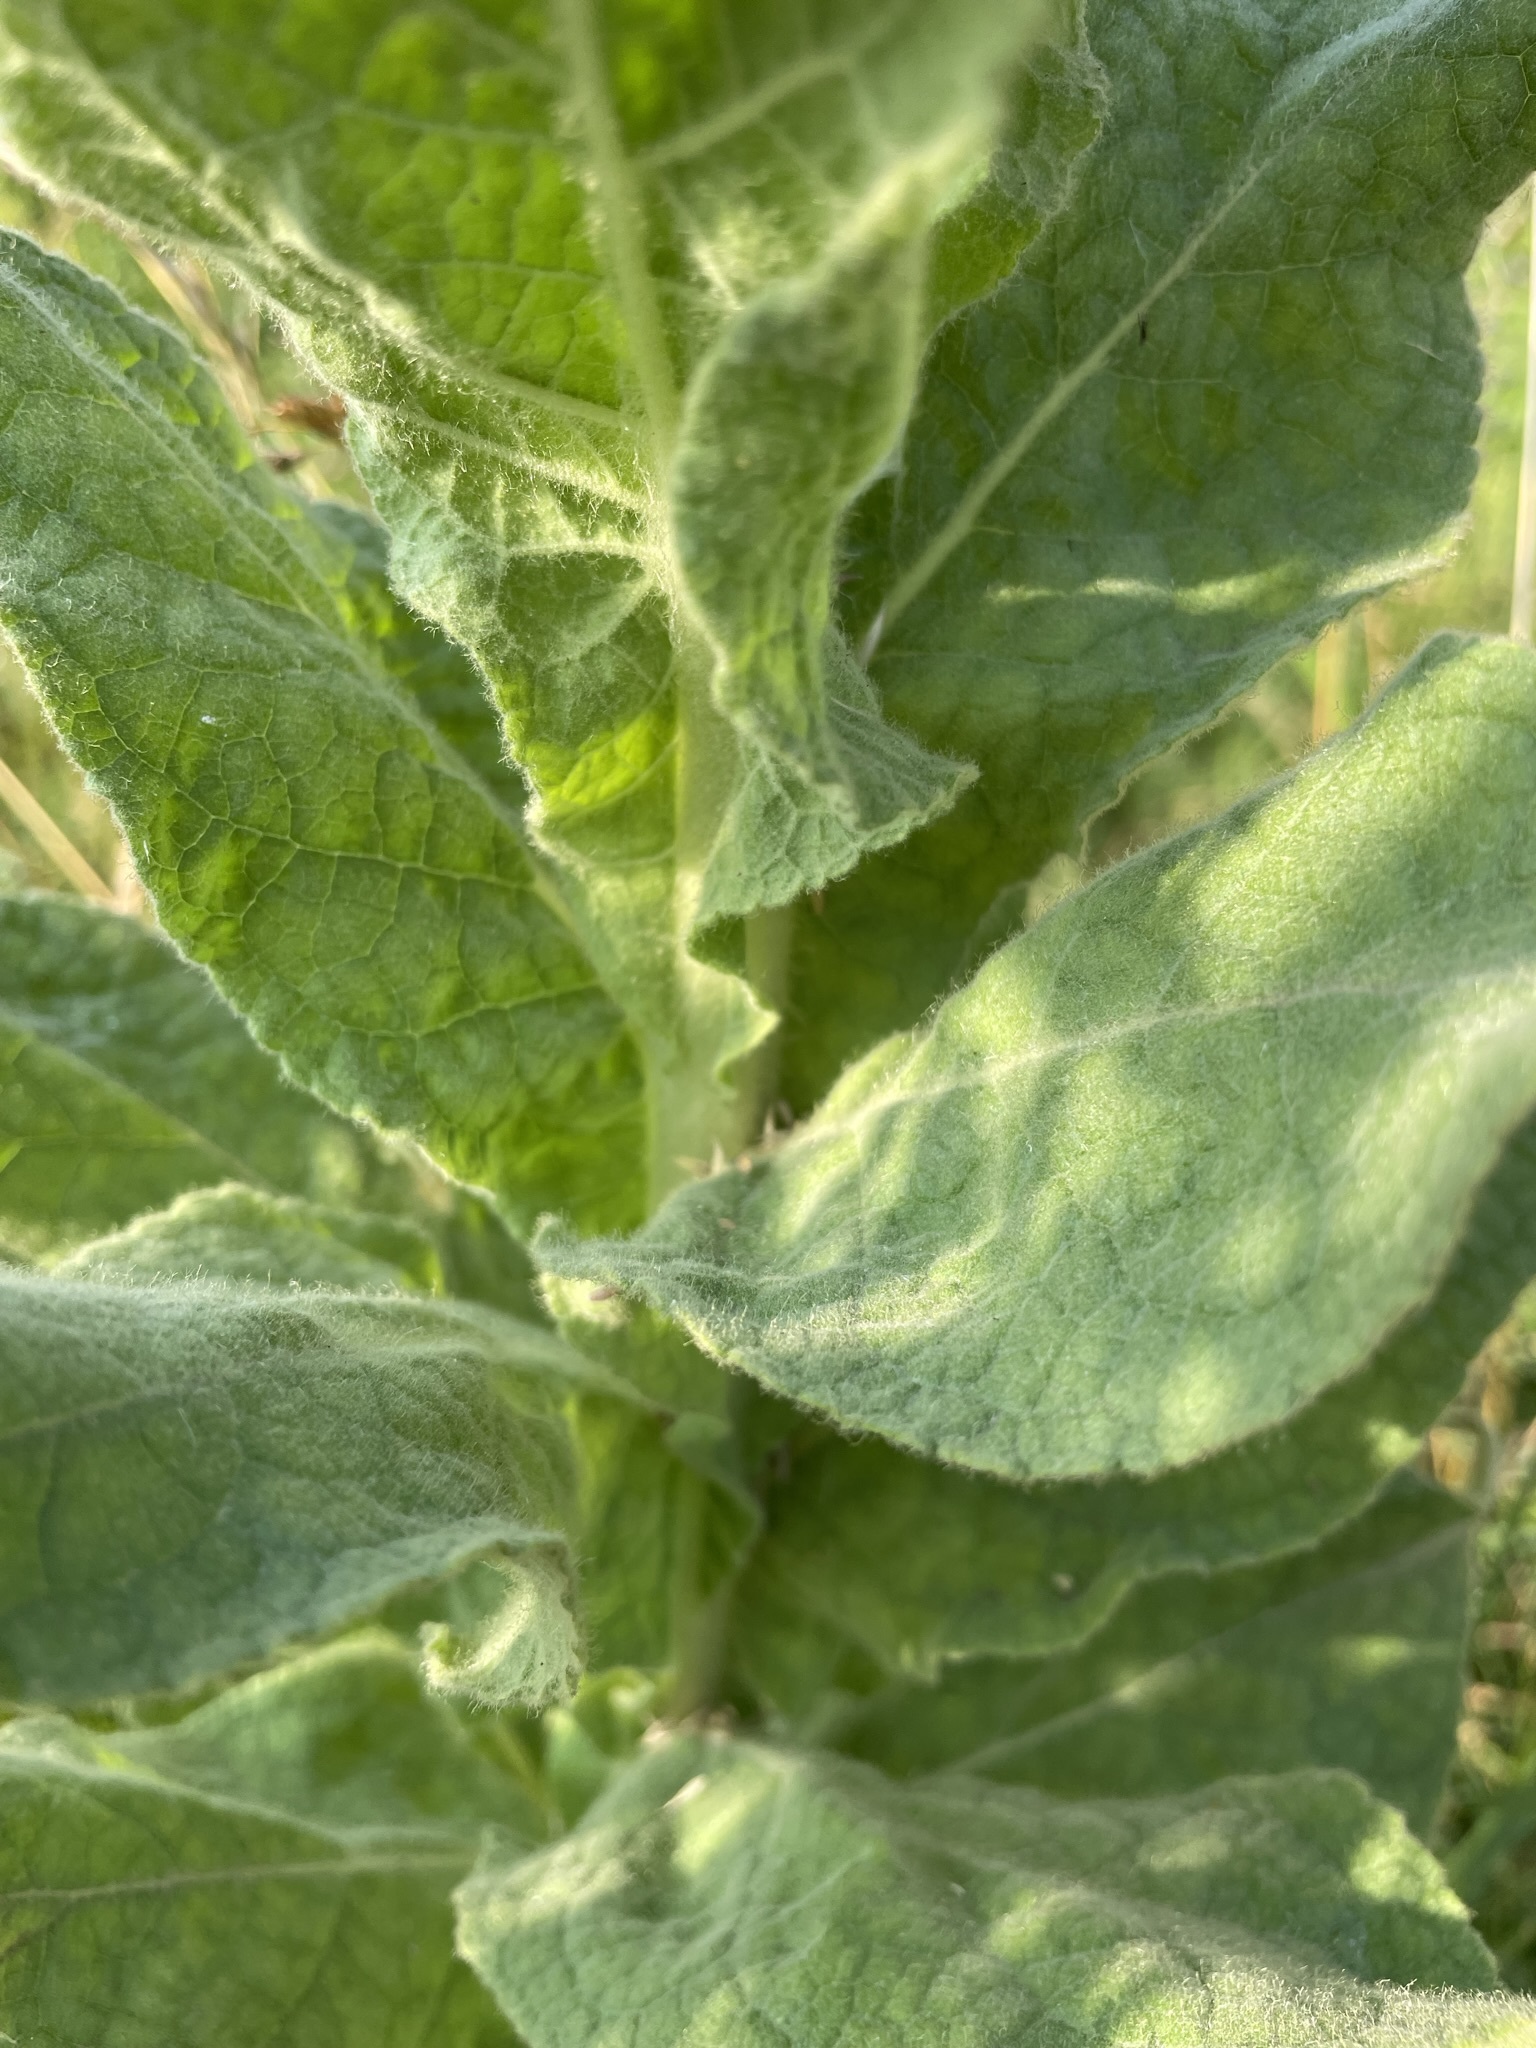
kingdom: Plantae
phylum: Tracheophyta
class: Magnoliopsida
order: Lamiales
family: Scrophulariaceae
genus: Verbascum
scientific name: Verbascum densiflorum
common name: Dense-flowered mullein
